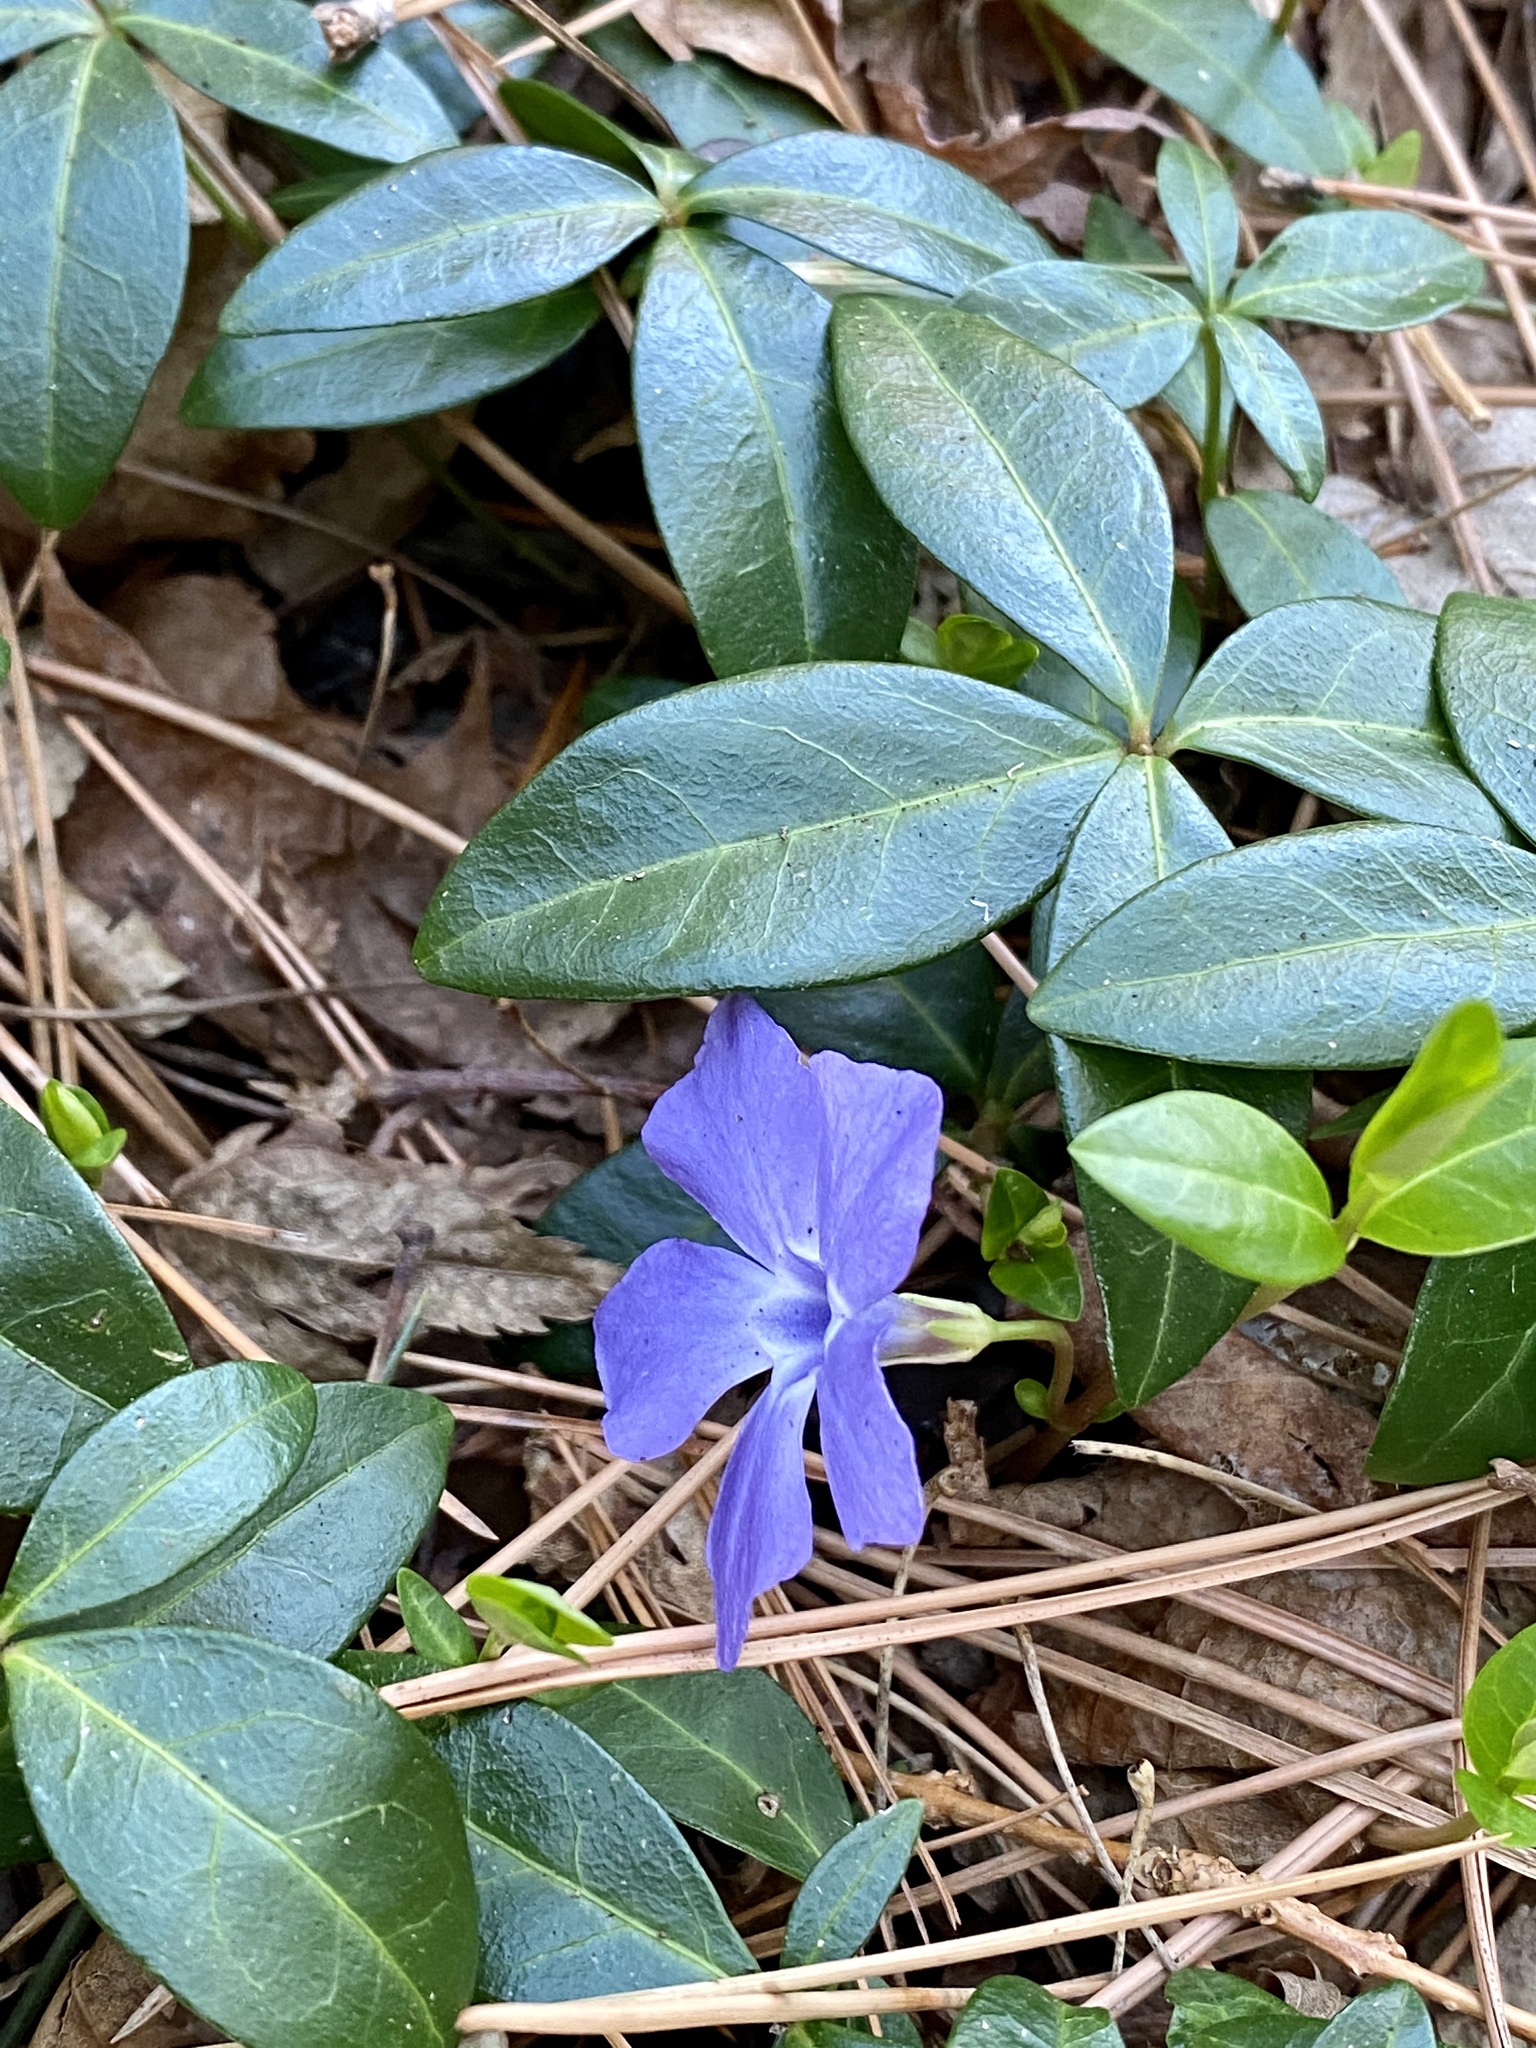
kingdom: Plantae
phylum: Tracheophyta
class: Magnoliopsida
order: Gentianales
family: Apocynaceae
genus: Vinca
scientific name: Vinca minor
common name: Lesser periwinkle
